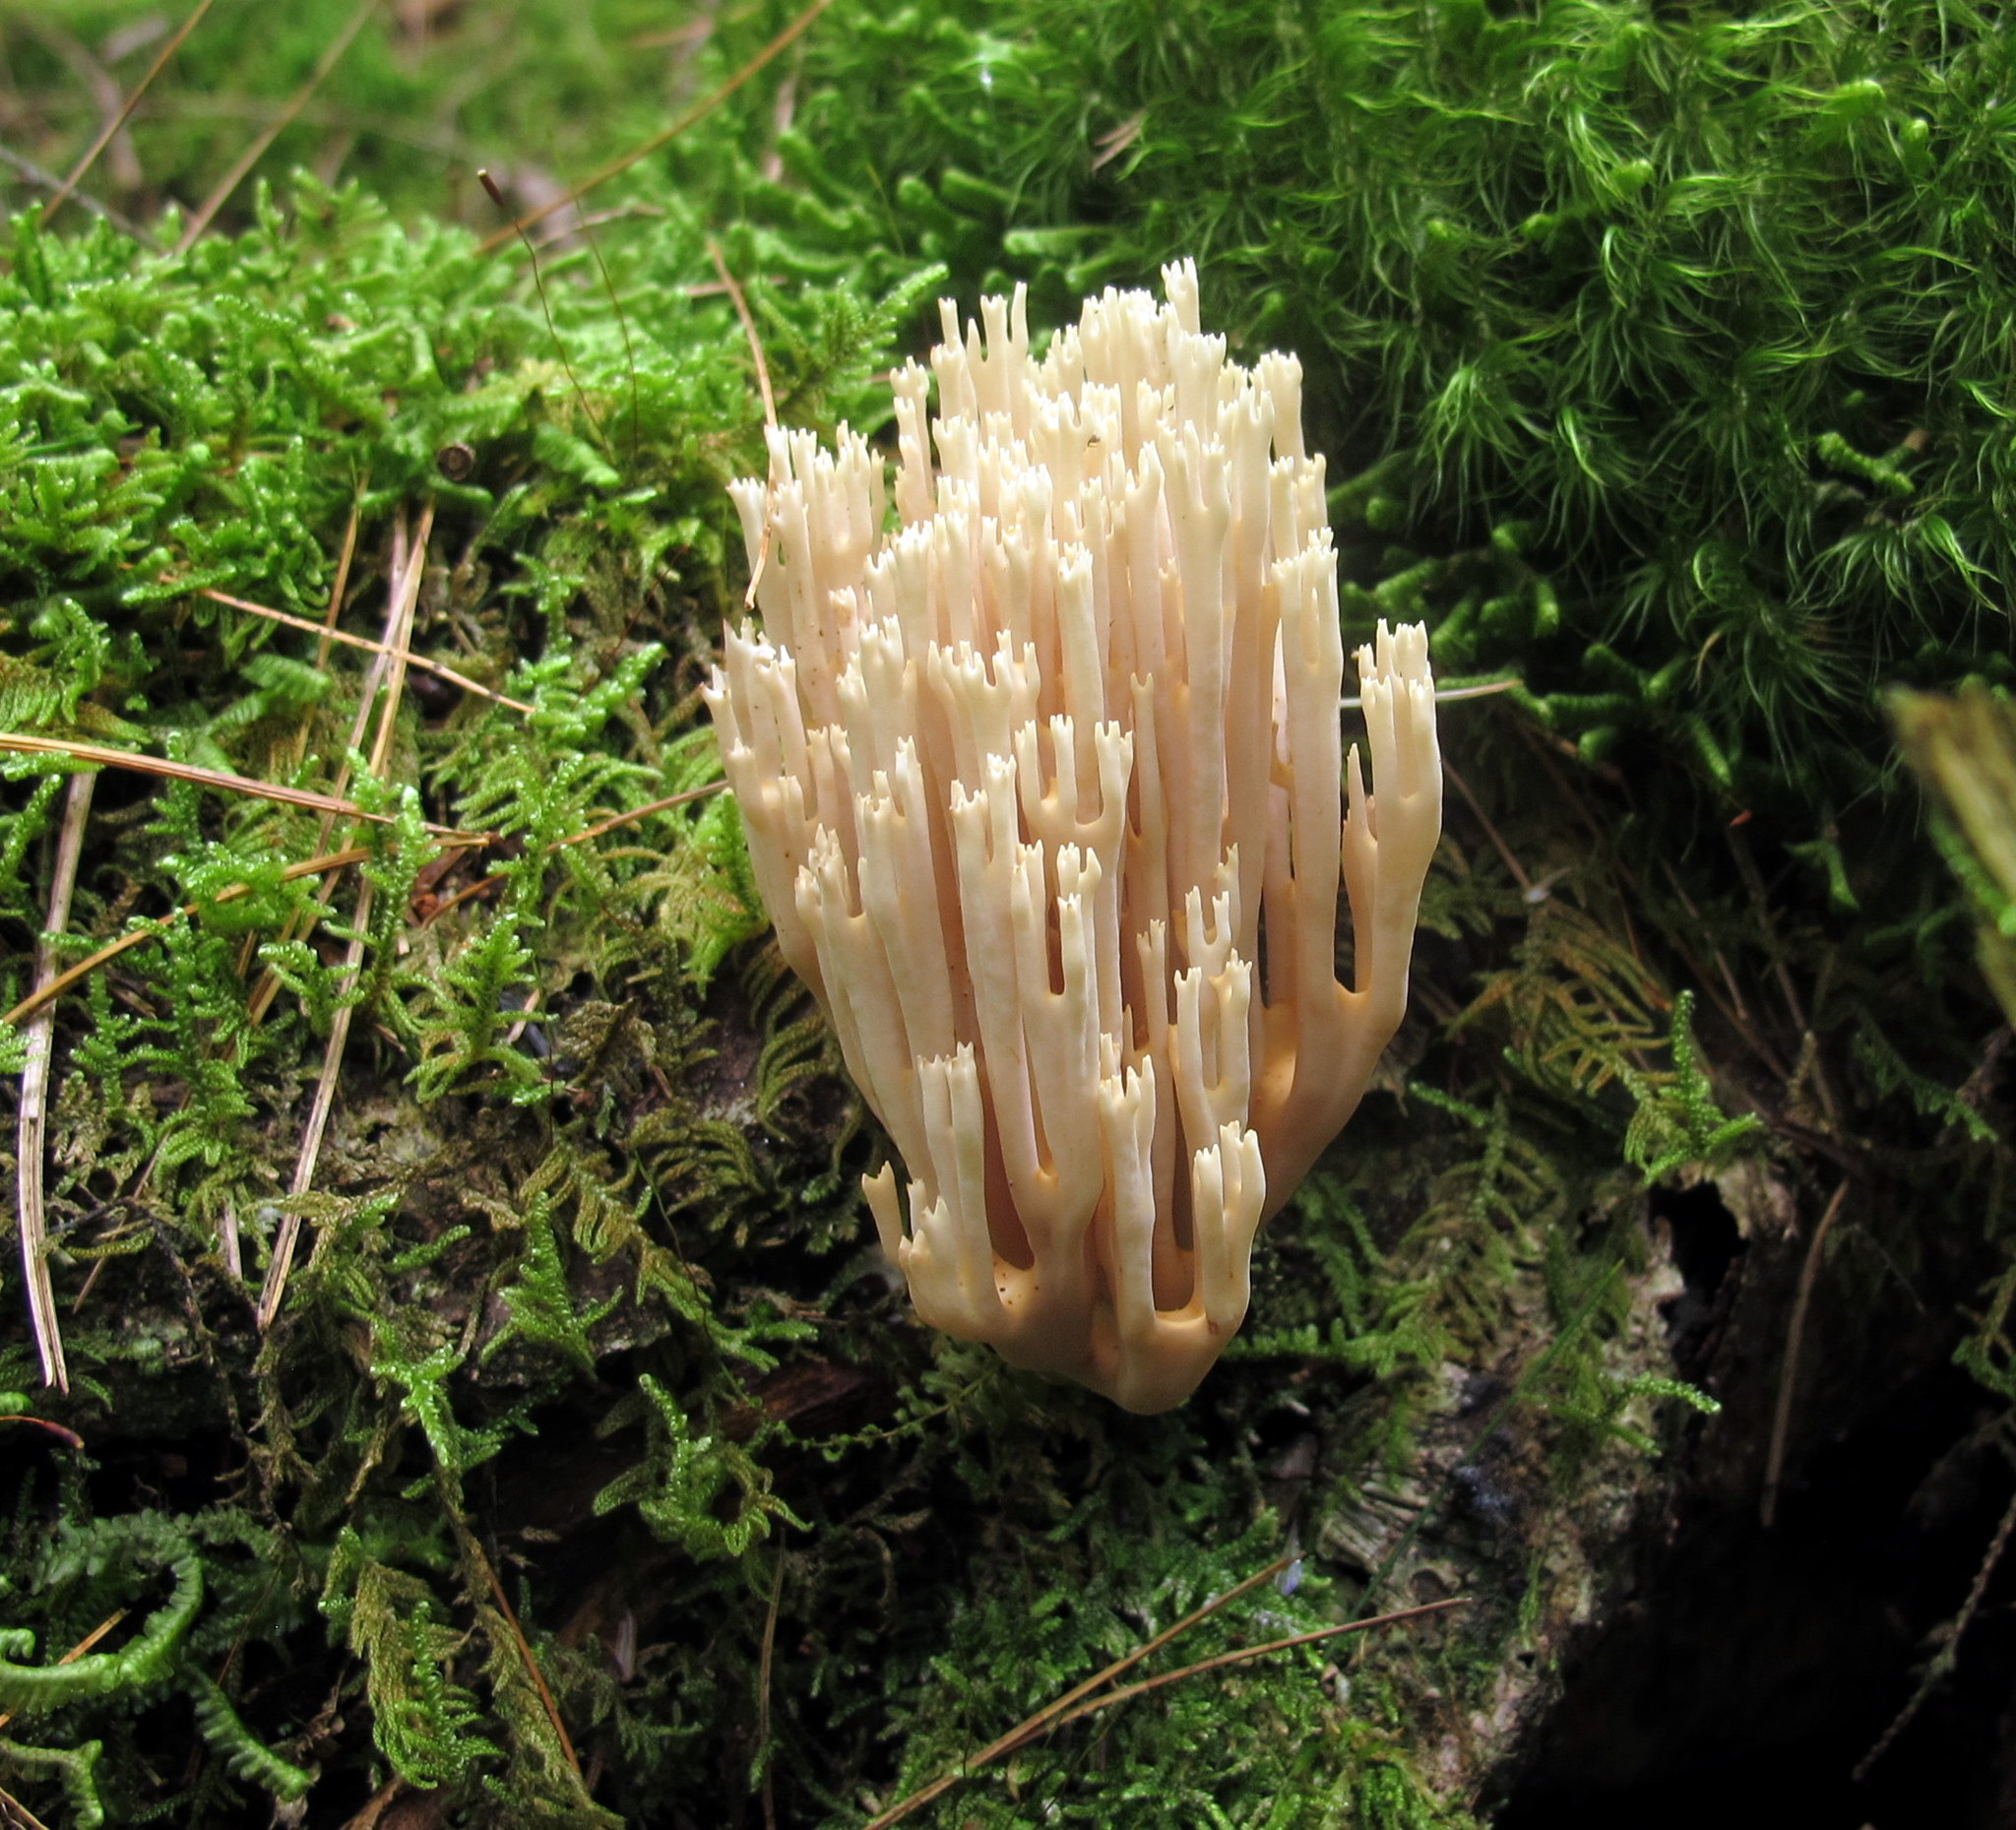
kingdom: Fungi
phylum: Basidiomycota
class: Agaricomycetes
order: Russulales
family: Auriscalpiaceae
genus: Artomyces
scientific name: Artomyces pyxidatus
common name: Crown-tipped coral fungus
